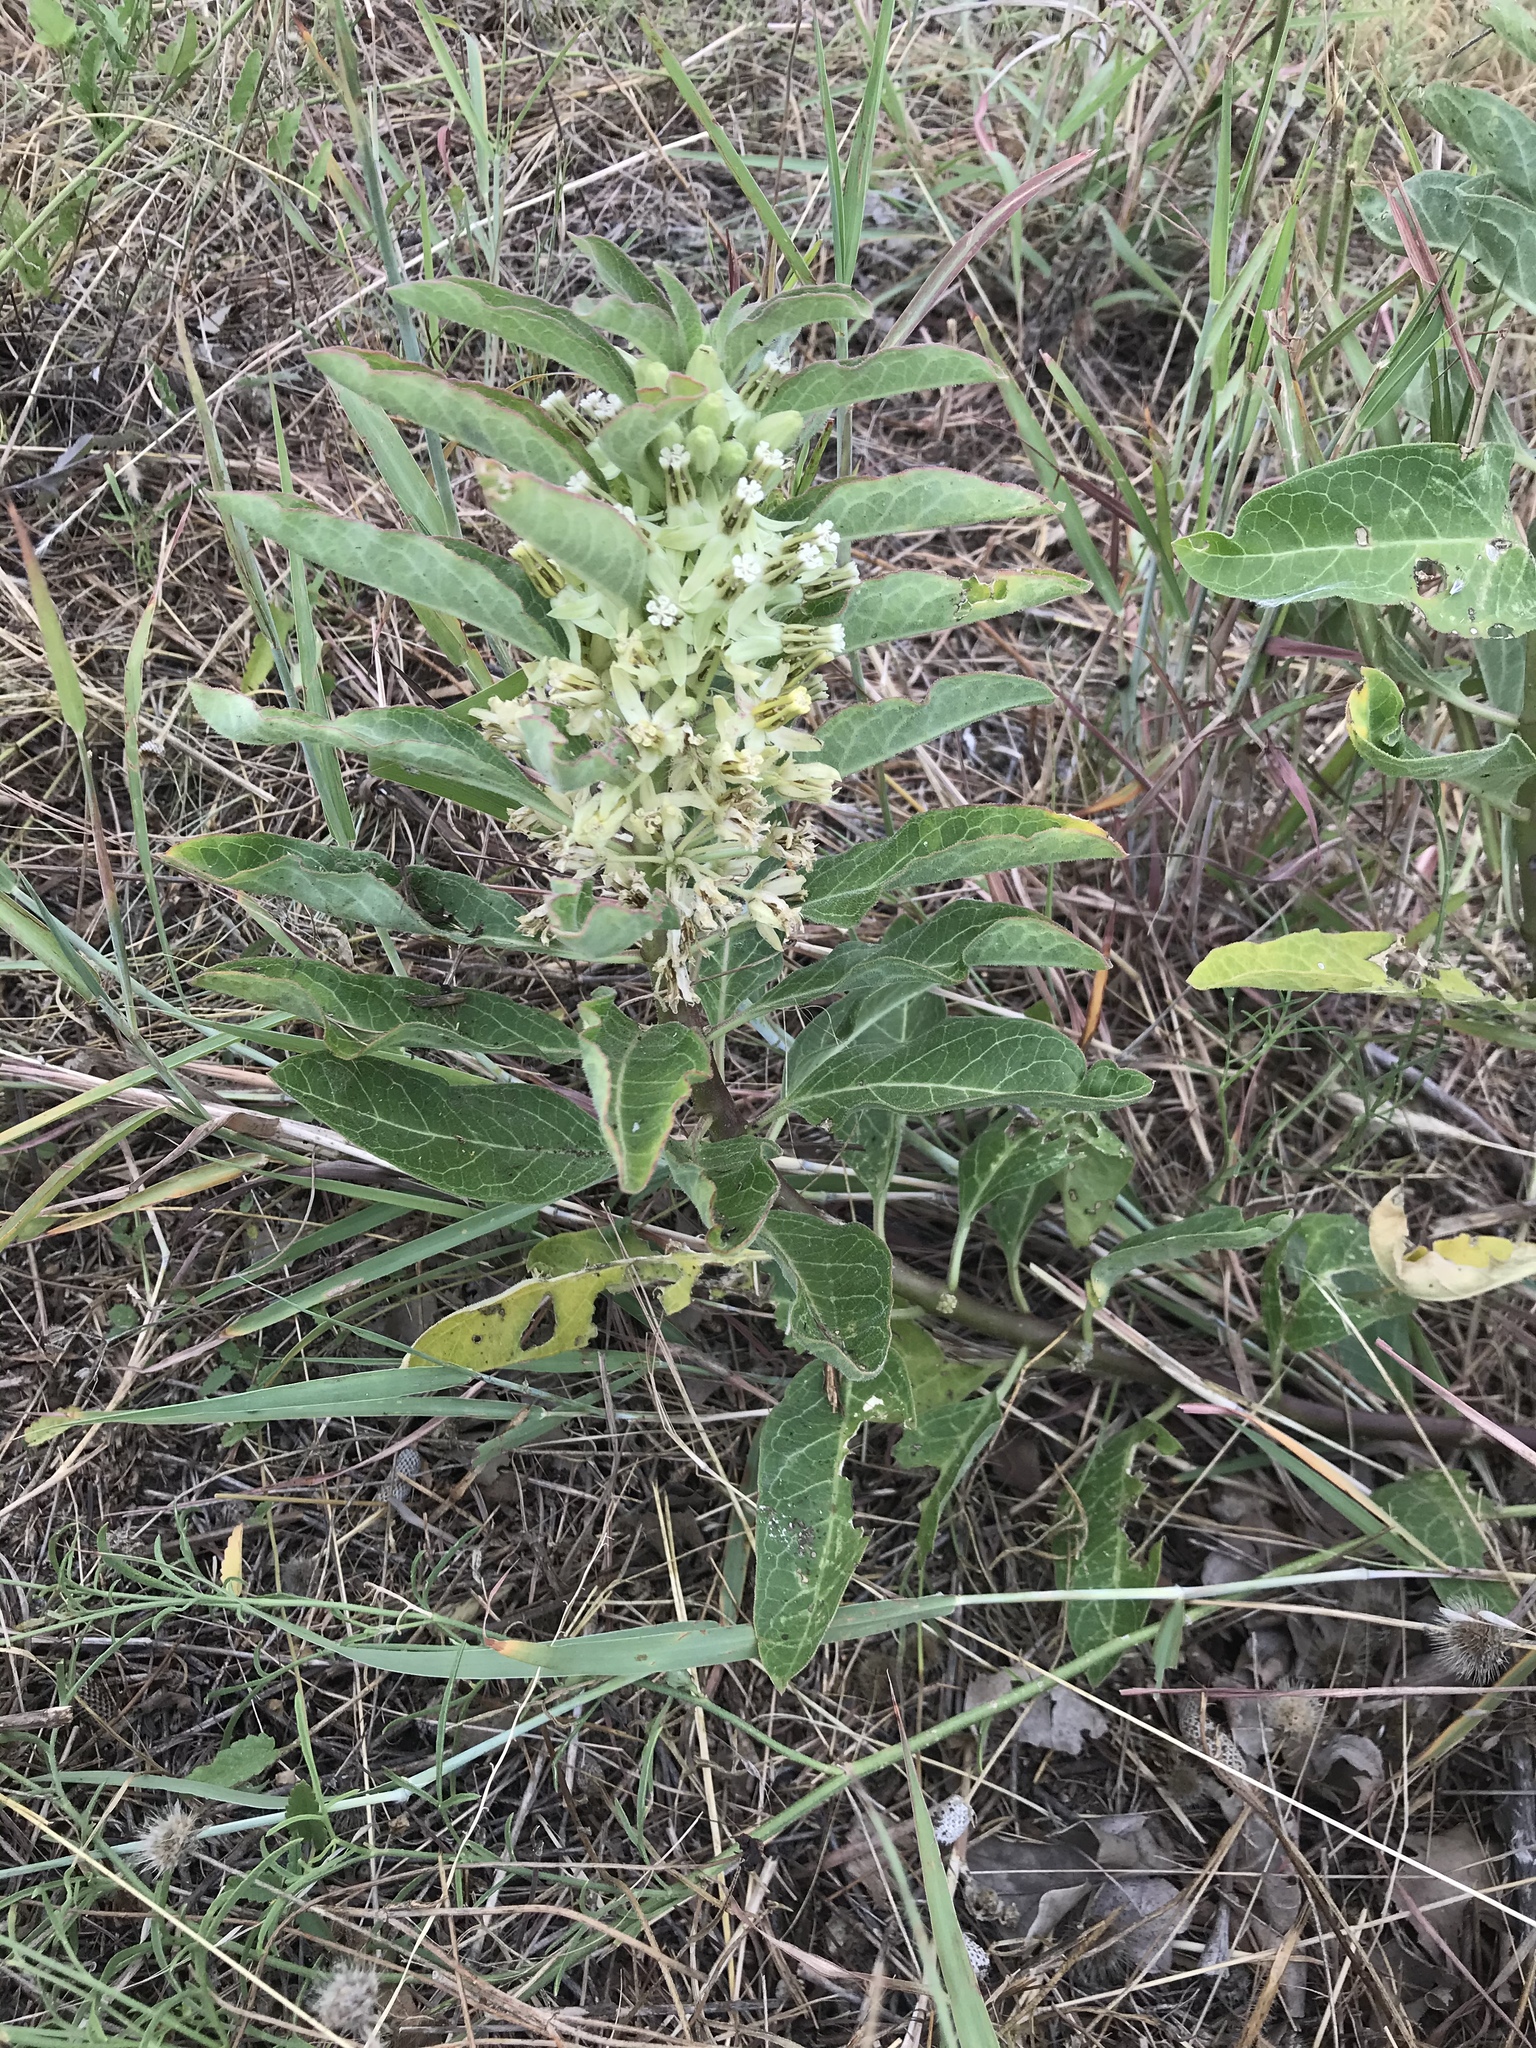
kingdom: Plantae
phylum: Tracheophyta
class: Magnoliopsida
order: Gentianales
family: Apocynaceae
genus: Asclepias
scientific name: Asclepias oenotheroides
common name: Zizotes milkweed
